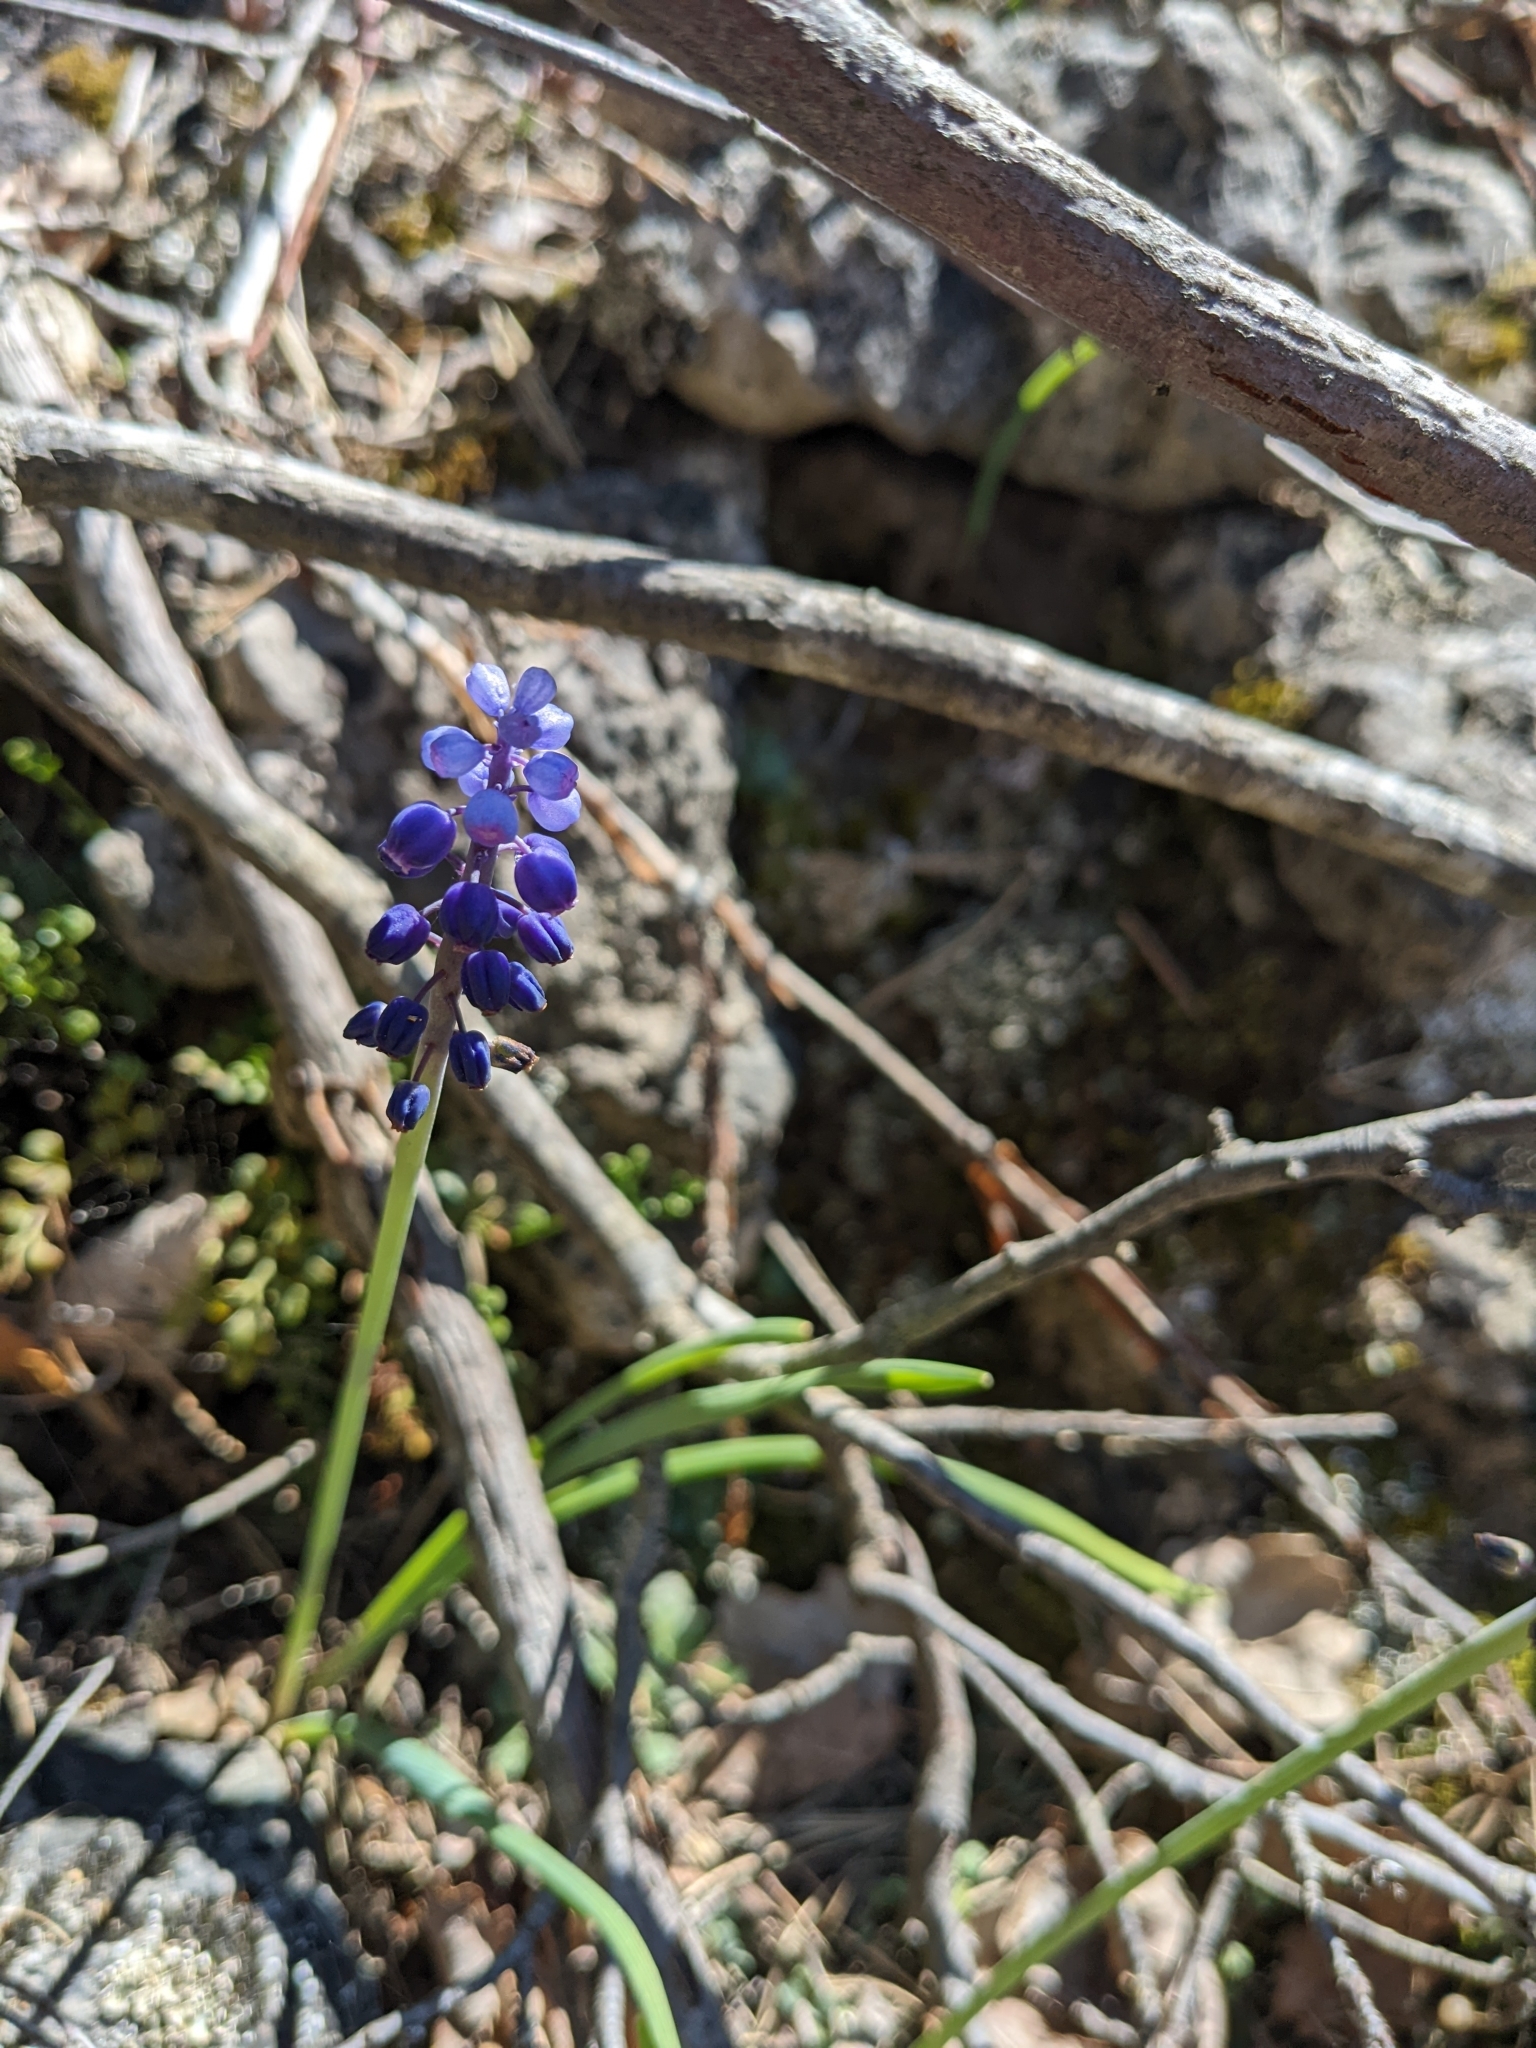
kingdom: Plantae
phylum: Tracheophyta
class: Liliopsida
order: Asparagales
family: Asparagaceae
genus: Muscari
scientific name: Muscari botryoides
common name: Compact grape-hyacinth
